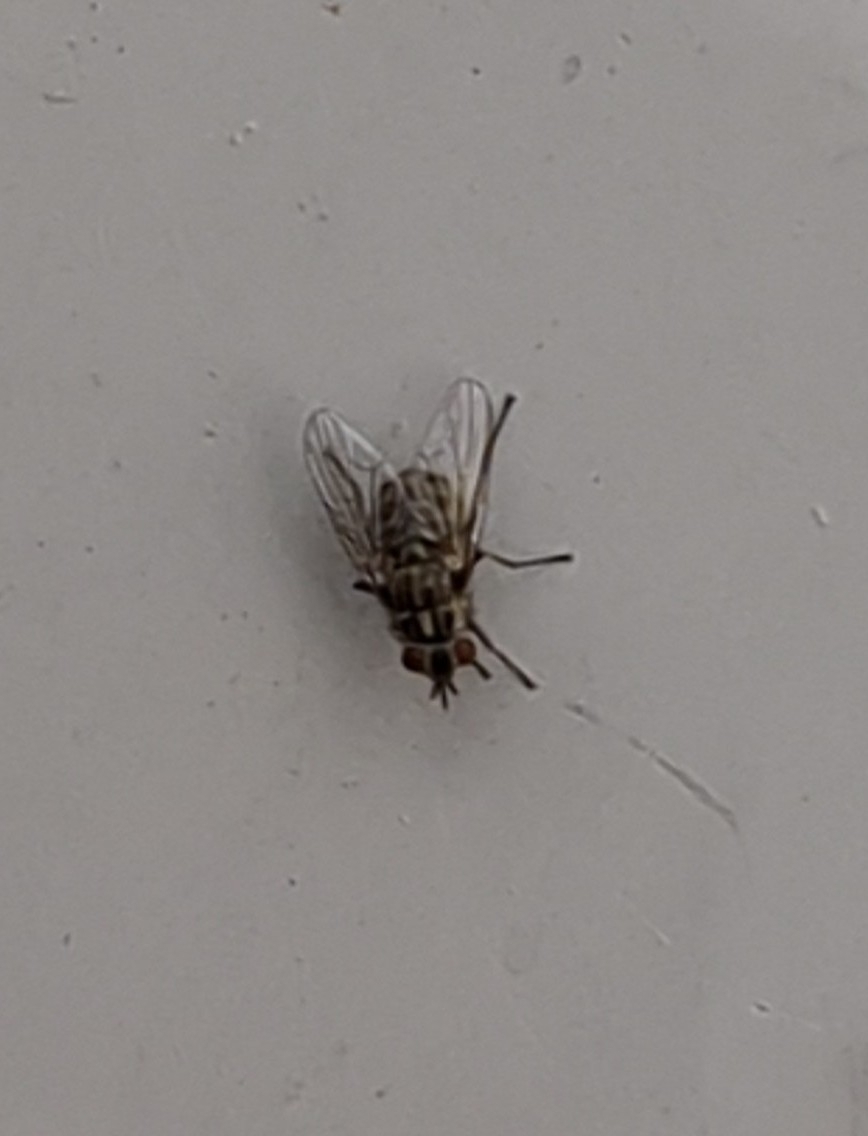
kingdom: Animalia
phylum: Arthropoda
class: Insecta
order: Diptera
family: Muscidae
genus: Stomoxys
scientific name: Stomoxys calcitrans
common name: Stable fly
